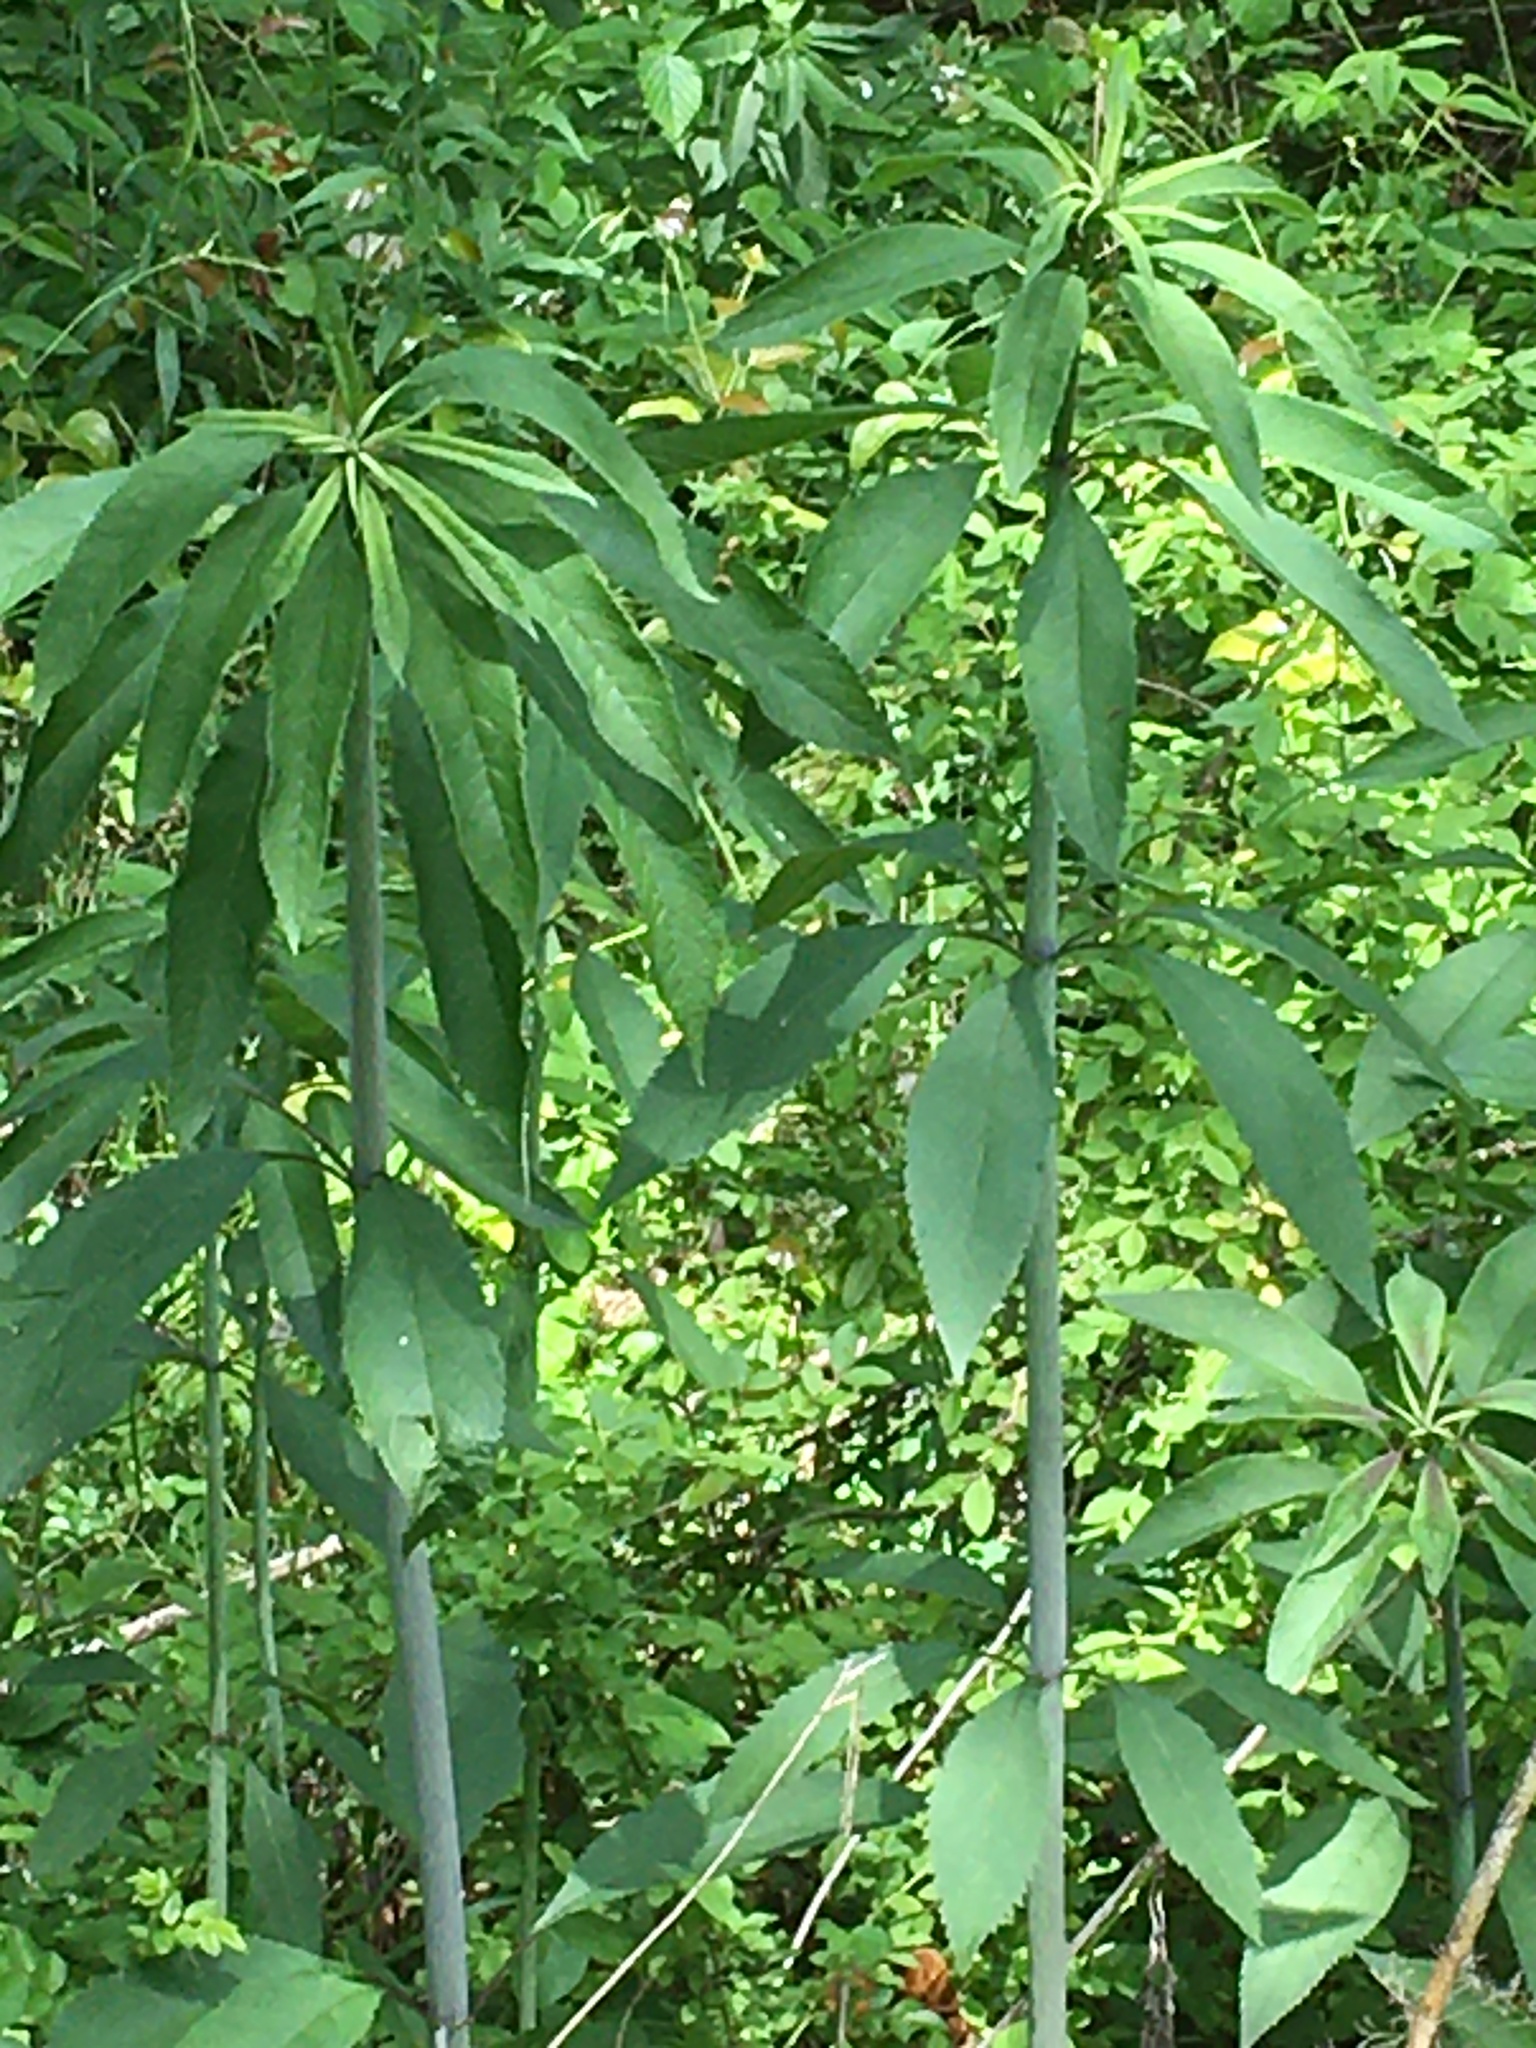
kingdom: Plantae
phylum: Tracheophyta
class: Magnoliopsida
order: Asterales
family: Asteraceae
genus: Eutrochium
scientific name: Eutrochium fistulosum
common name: Trumpetweed
